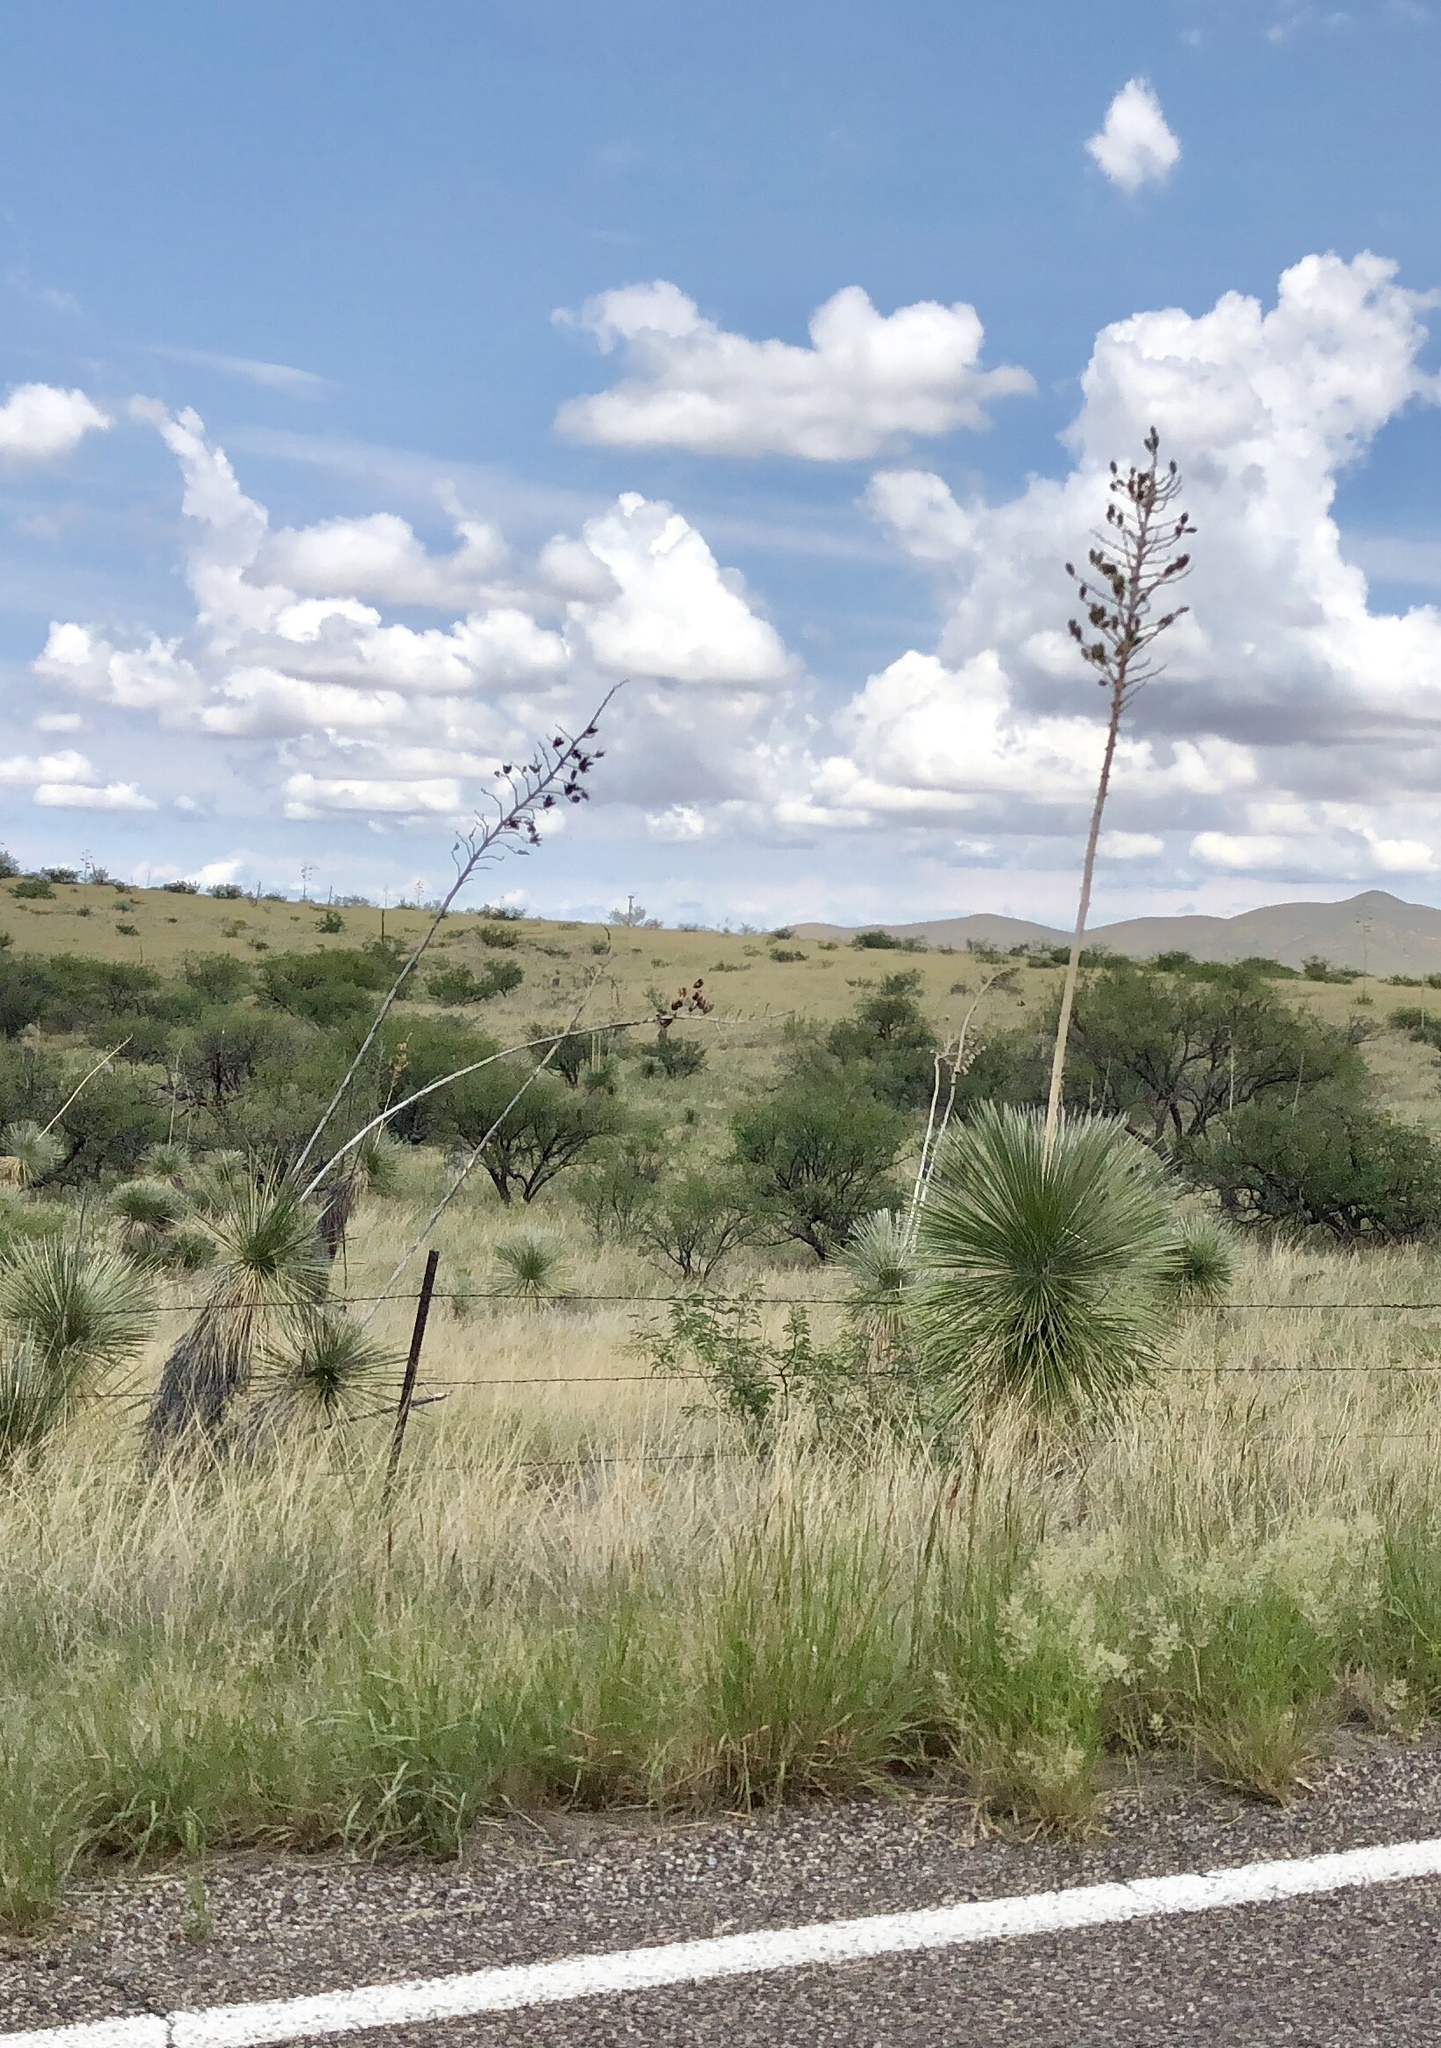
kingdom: Plantae
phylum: Tracheophyta
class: Liliopsida
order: Asparagales
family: Asparagaceae
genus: Yucca
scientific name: Yucca elata
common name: Palmella
